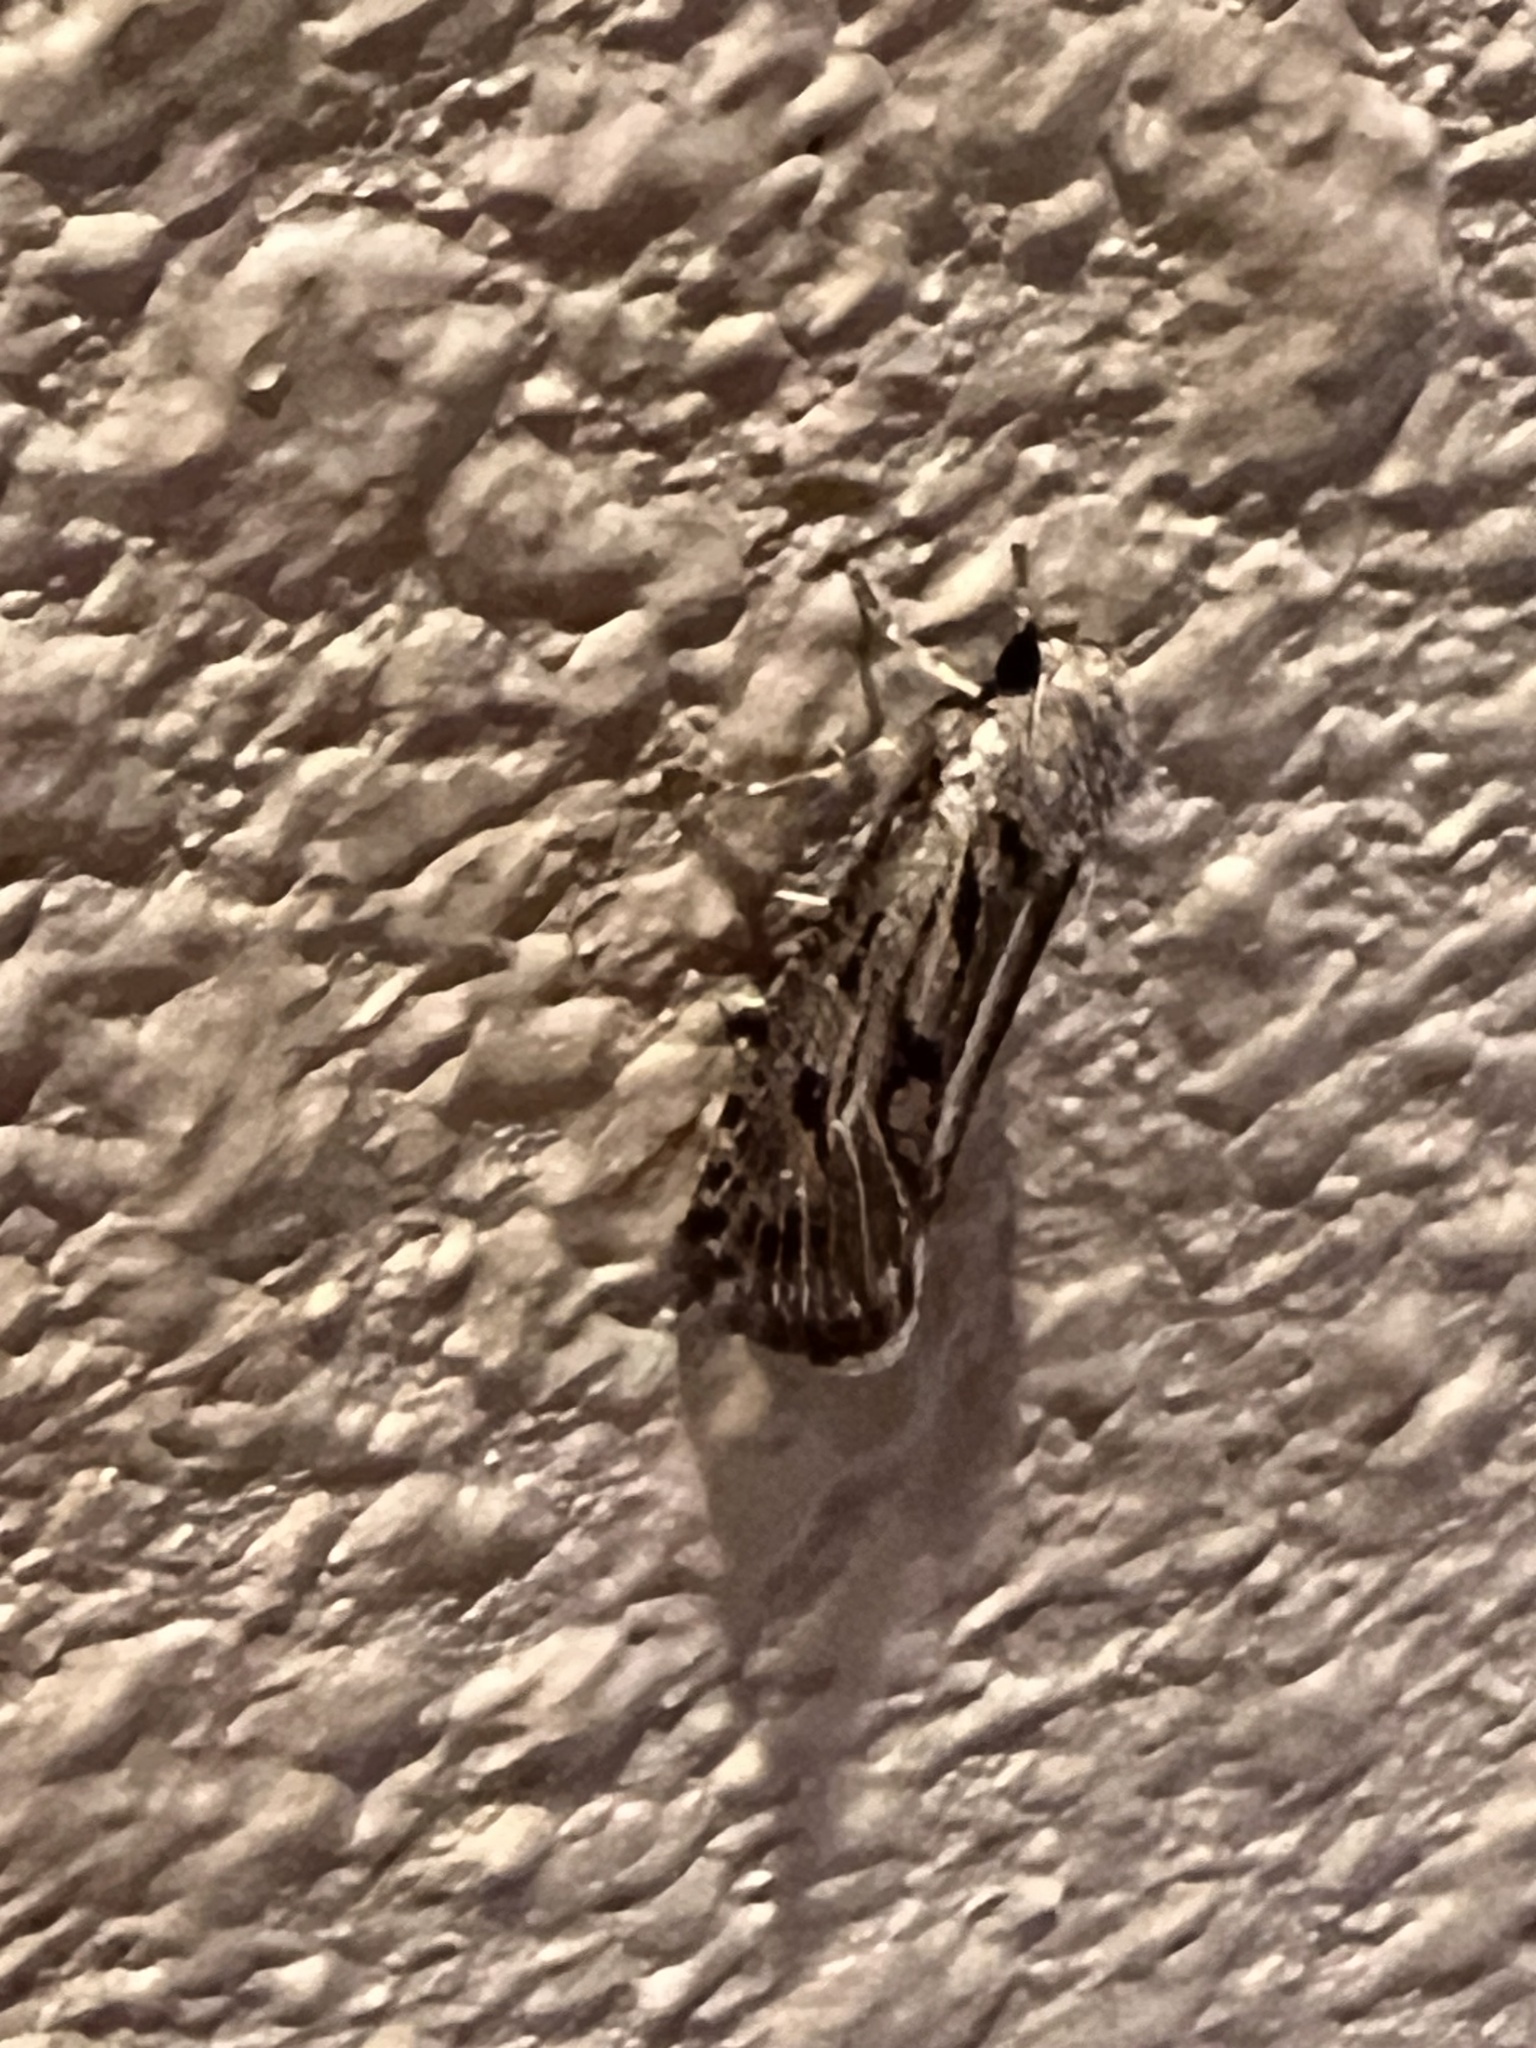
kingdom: Animalia
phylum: Arthropoda
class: Insecta
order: Lepidoptera
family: Tineidae
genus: Acrolophus
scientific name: Acrolophus popeanella
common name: Clemens' grass tubeworm moth
